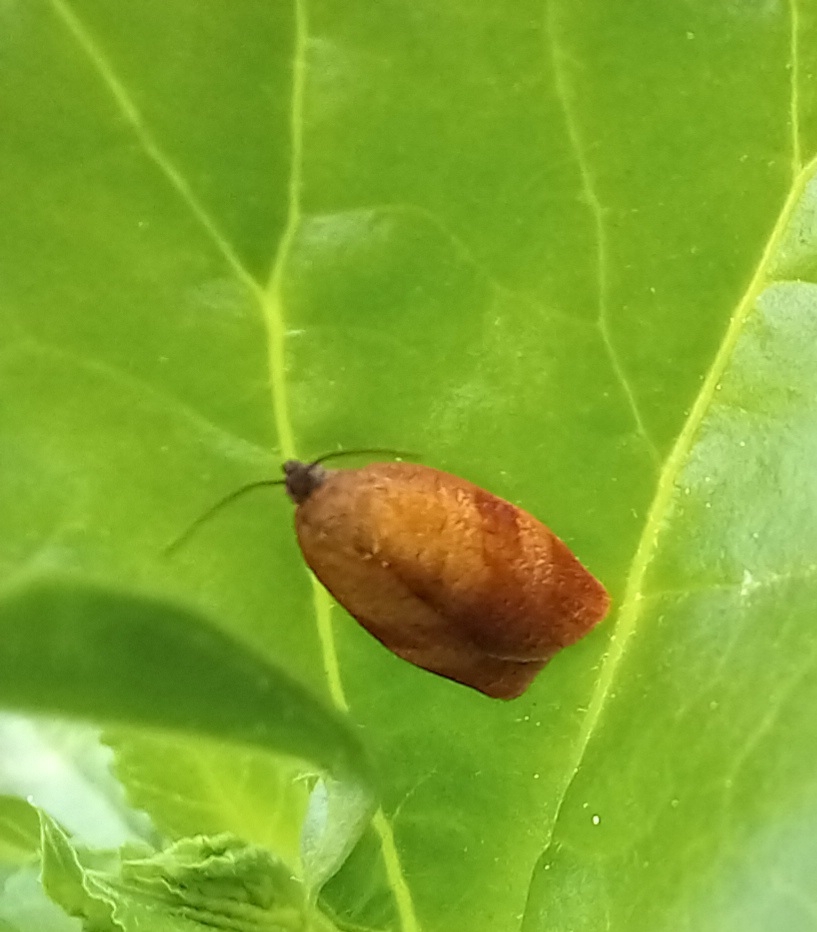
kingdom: Animalia
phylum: Arthropoda
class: Insecta
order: Lepidoptera
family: Tortricidae
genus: Cacoecimorpha
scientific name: Cacoecimorpha pronubana
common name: Carnation tortrix
